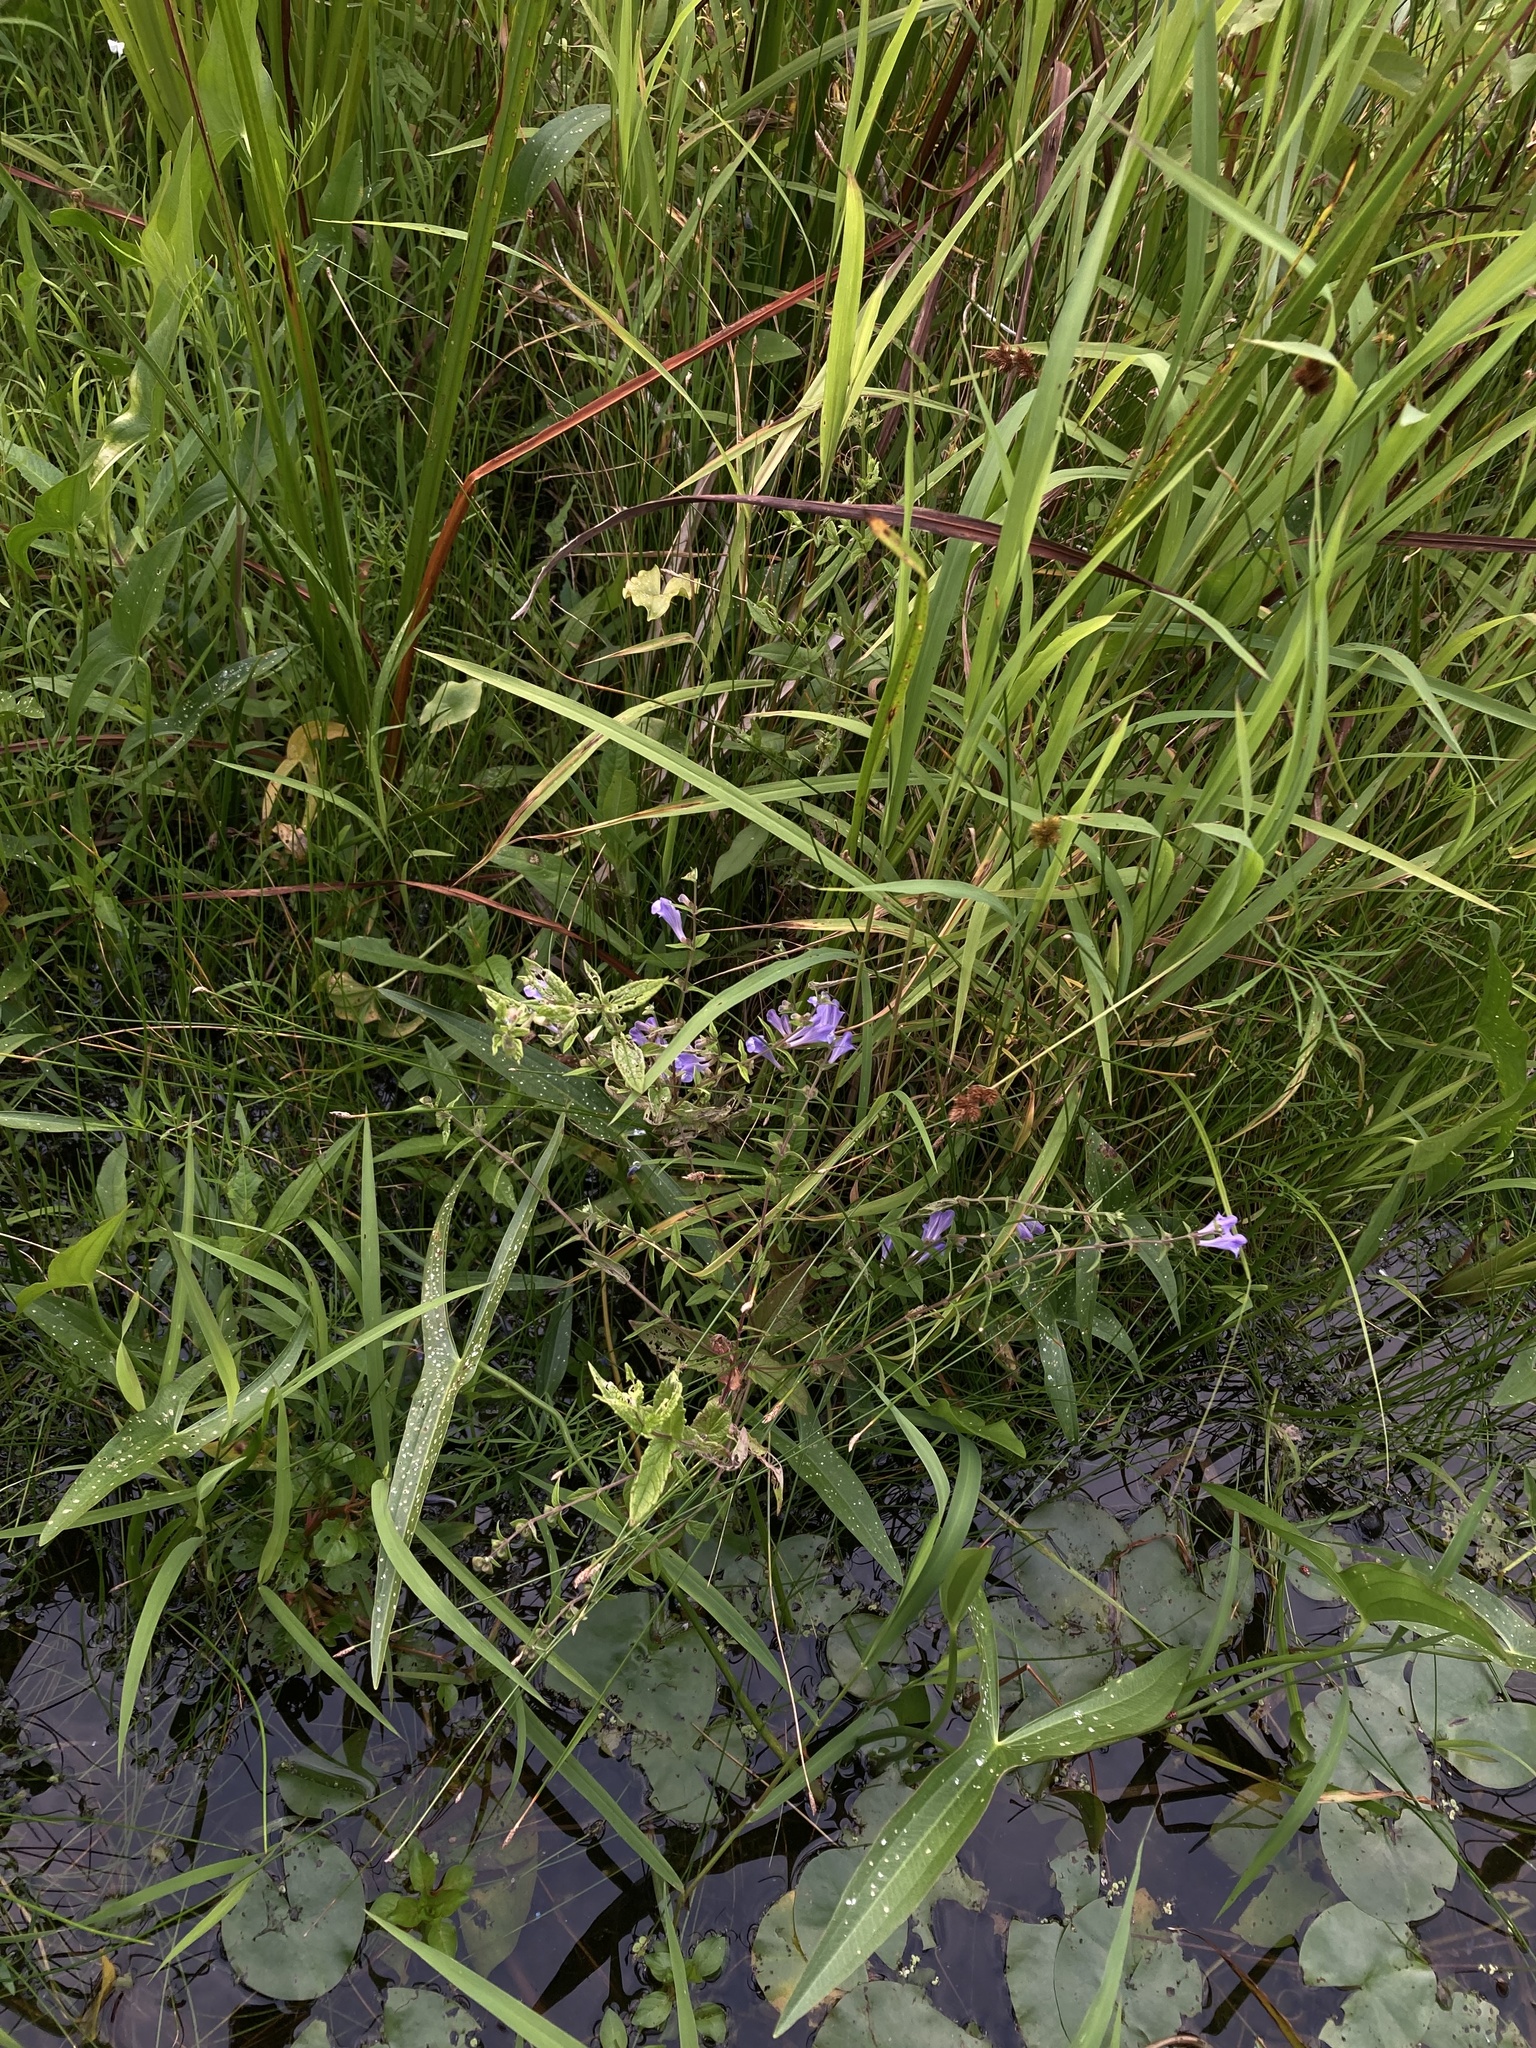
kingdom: Plantae
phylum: Tracheophyta
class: Magnoliopsida
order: Lamiales
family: Lamiaceae
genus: Scutellaria
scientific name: Scutellaria galericulata
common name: Skullcap
